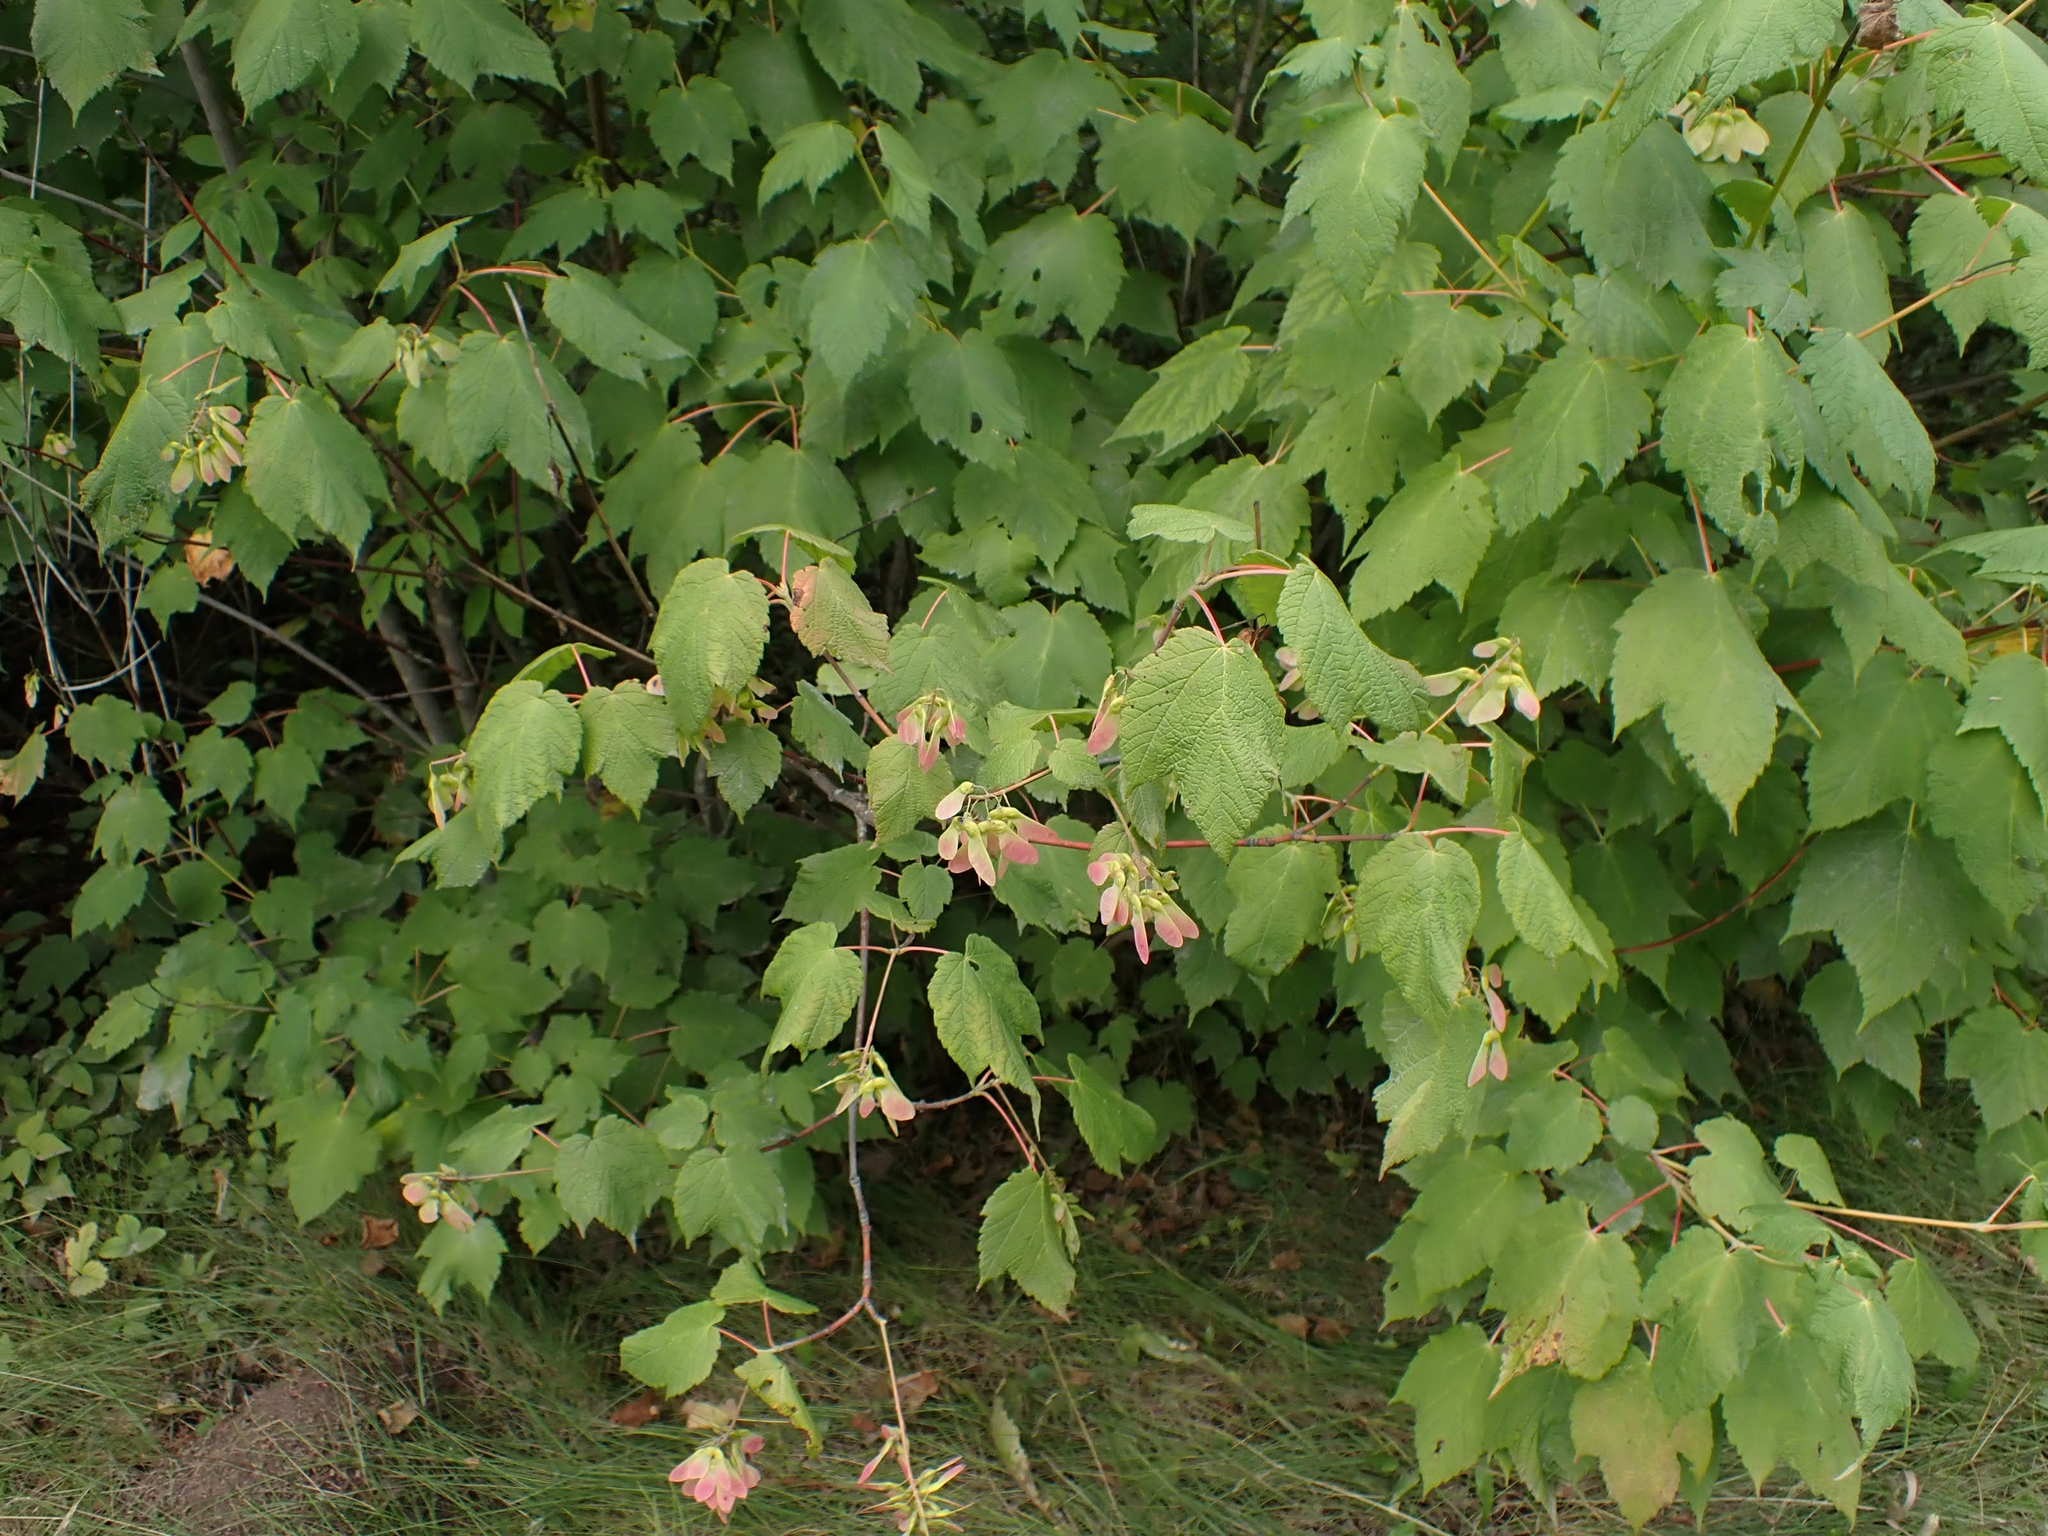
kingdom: Plantae
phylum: Tracheophyta
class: Magnoliopsida
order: Sapindales
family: Sapindaceae
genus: Acer
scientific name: Acer spicatum
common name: Mountain maple
